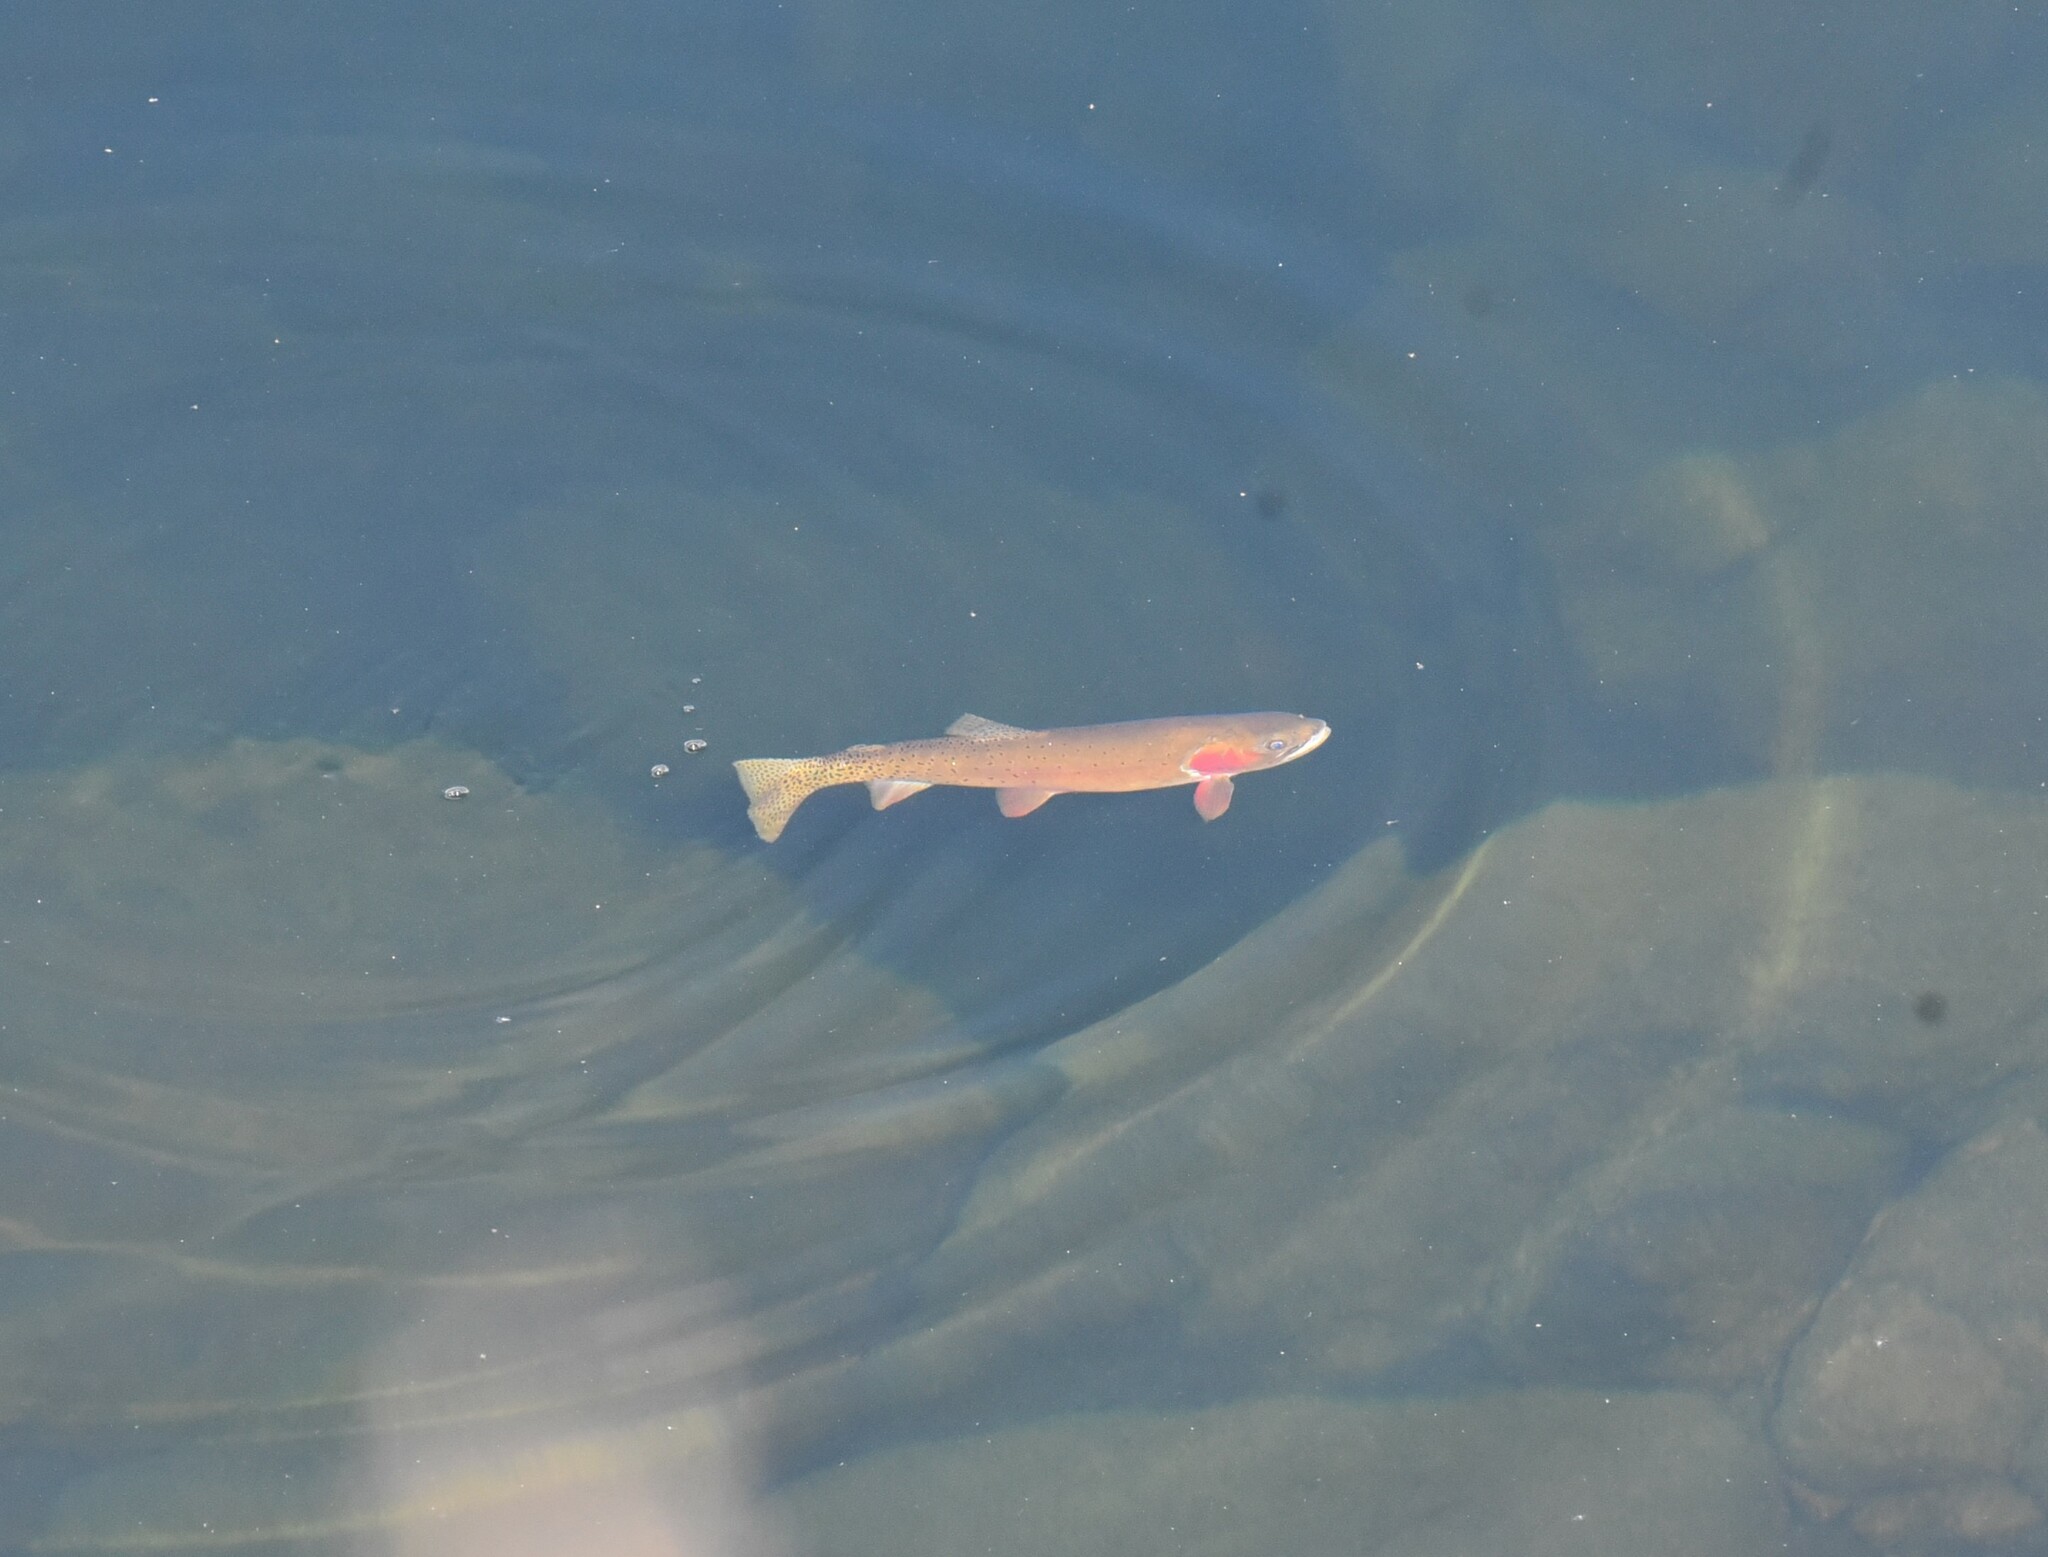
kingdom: Animalia
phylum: Chordata
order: Salmoniformes
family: Salmonidae
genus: Oncorhynchus
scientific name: Oncorhynchus virginalis
